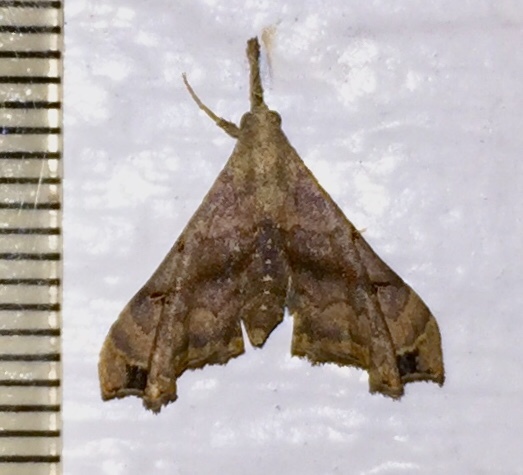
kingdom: Animalia
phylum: Arthropoda
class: Insecta
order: Lepidoptera
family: Erebidae
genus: Palthis
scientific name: Palthis asopialis
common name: Faint-spotted palthis moth
